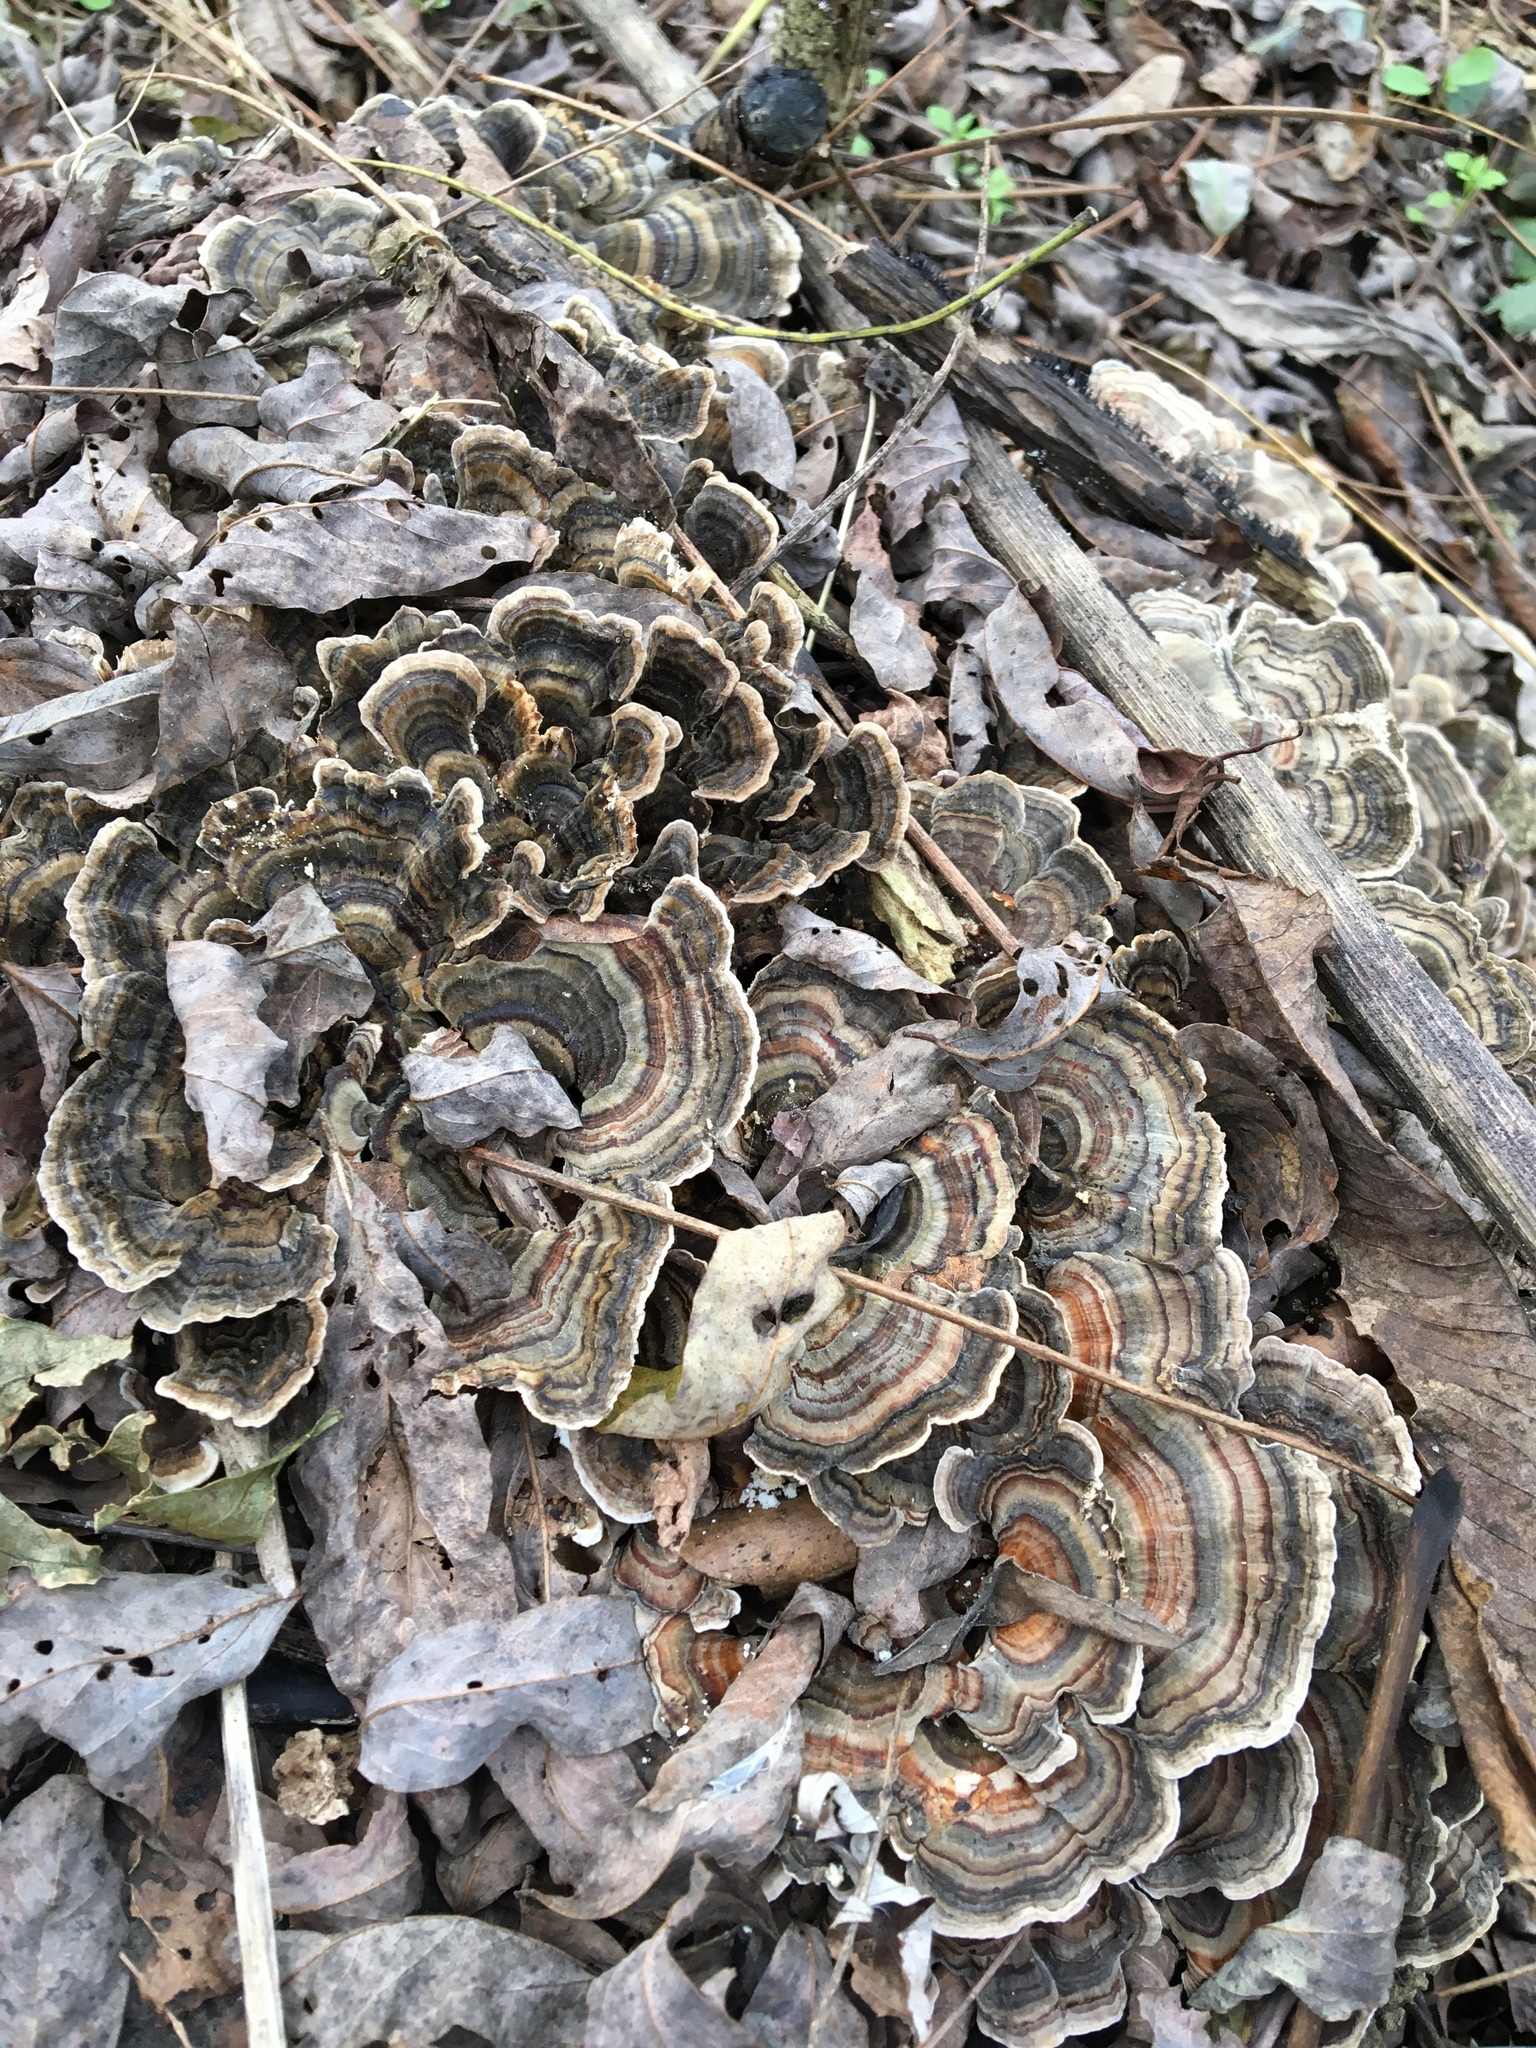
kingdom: Fungi
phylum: Basidiomycota
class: Agaricomycetes
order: Polyporales
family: Polyporaceae
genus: Trametes
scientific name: Trametes versicolor
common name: Turkeytail
